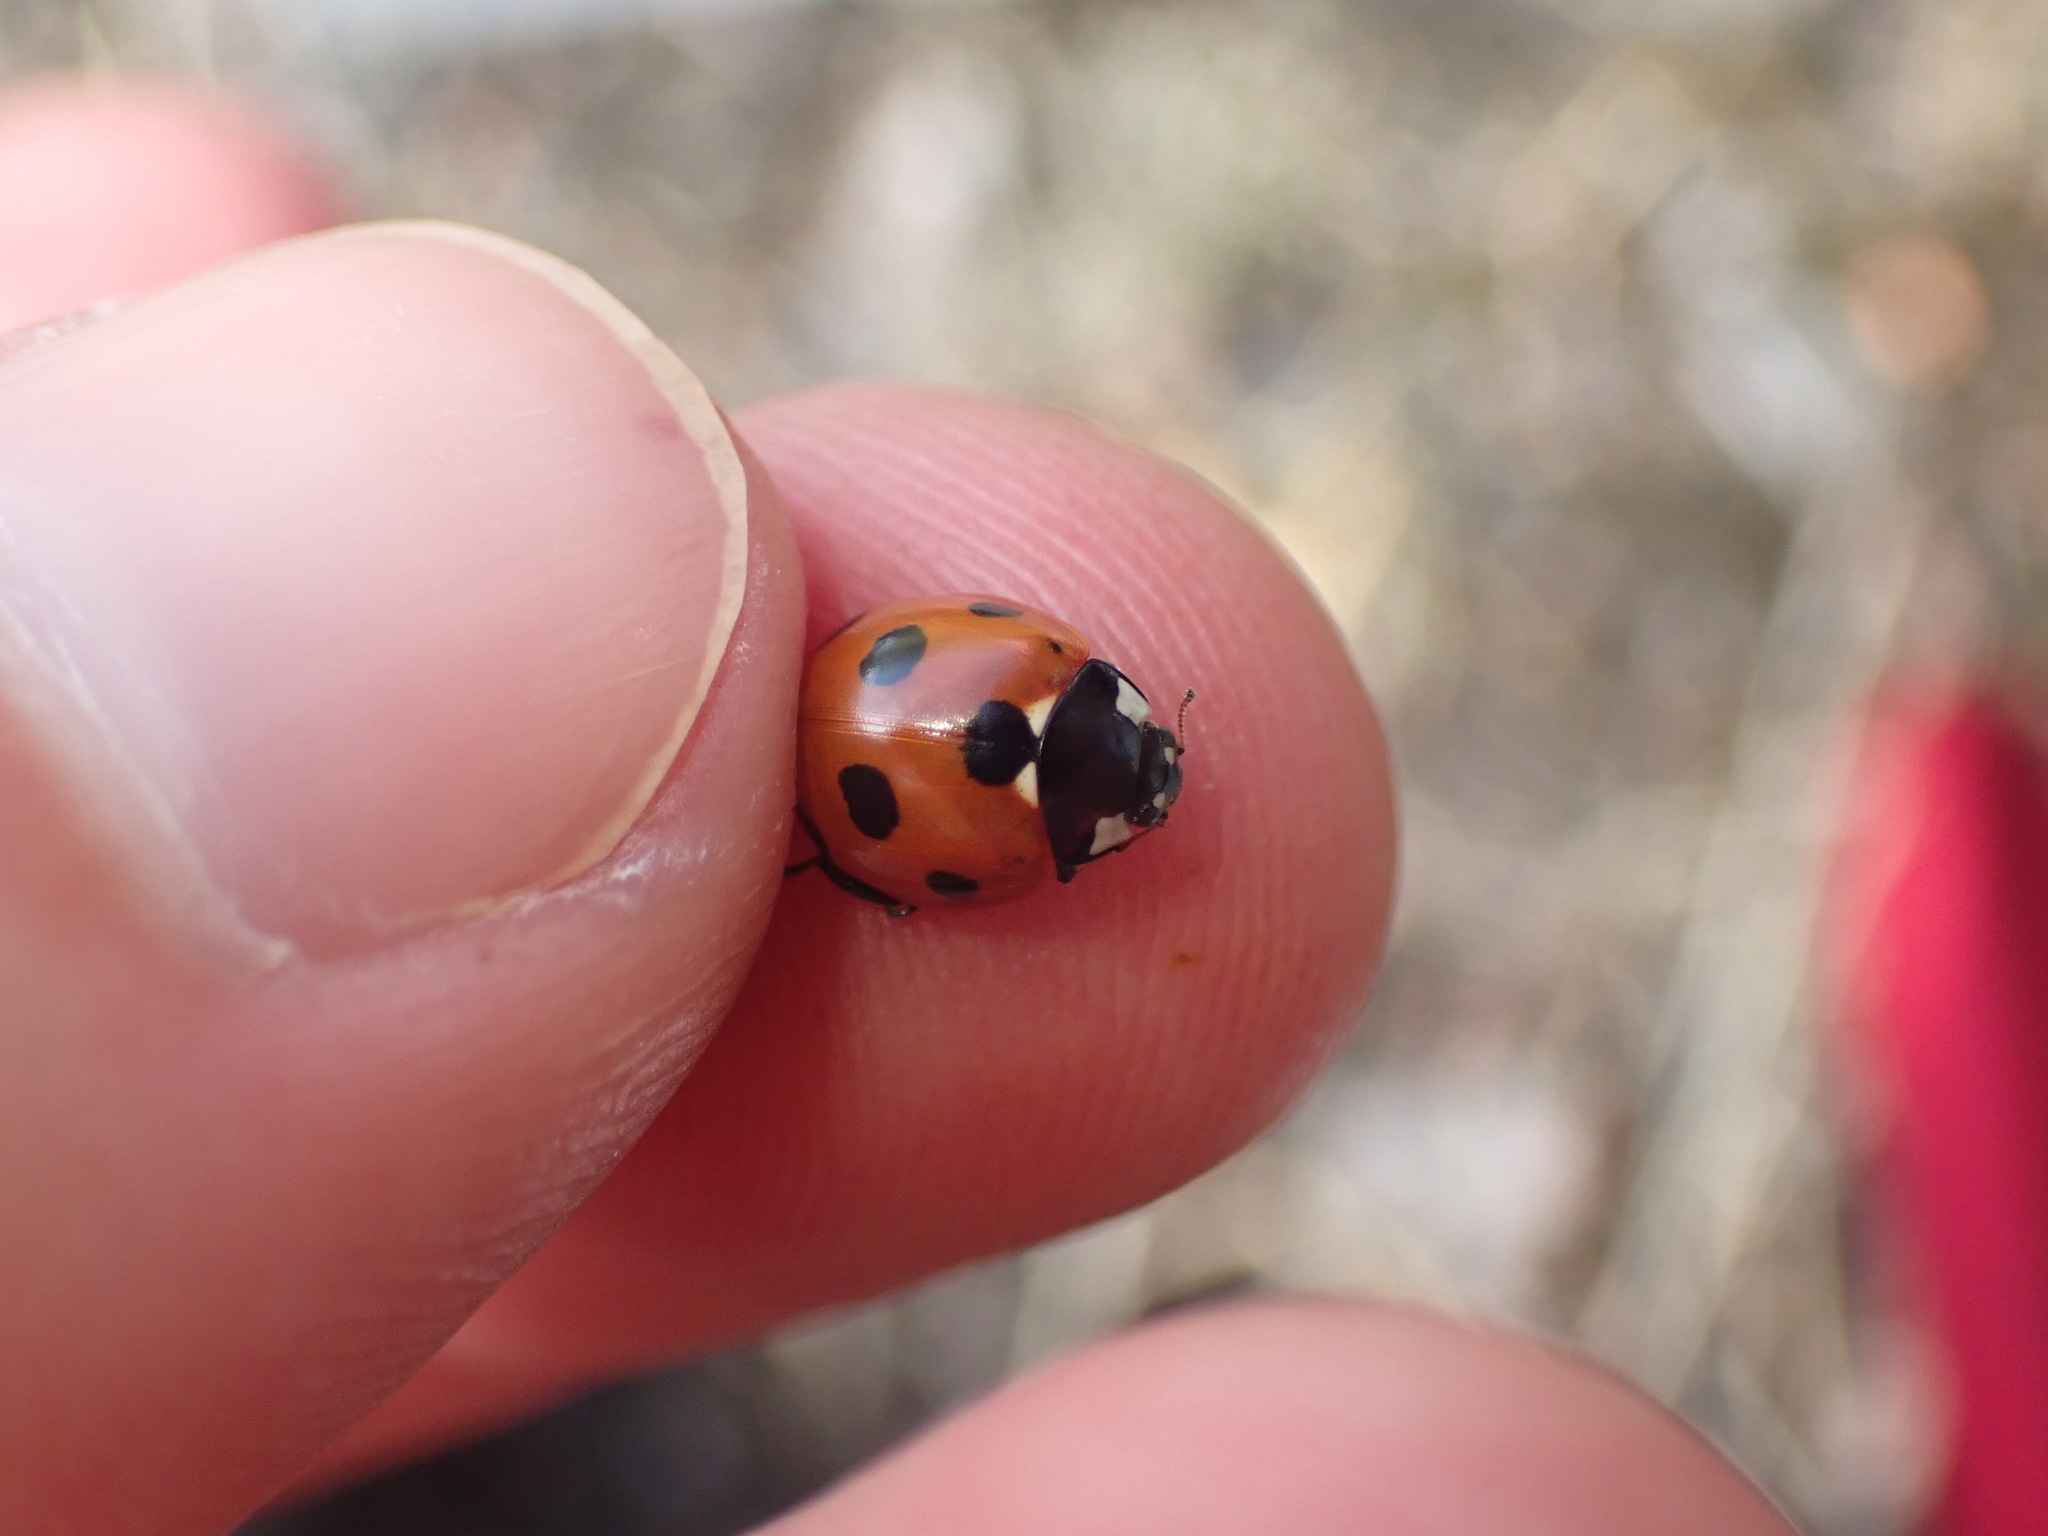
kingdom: Animalia
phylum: Arthropoda
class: Insecta
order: Coleoptera
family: Coccinellidae
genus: Coccinella
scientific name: Coccinella septempunctata
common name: Sevenspotted lady beetle
